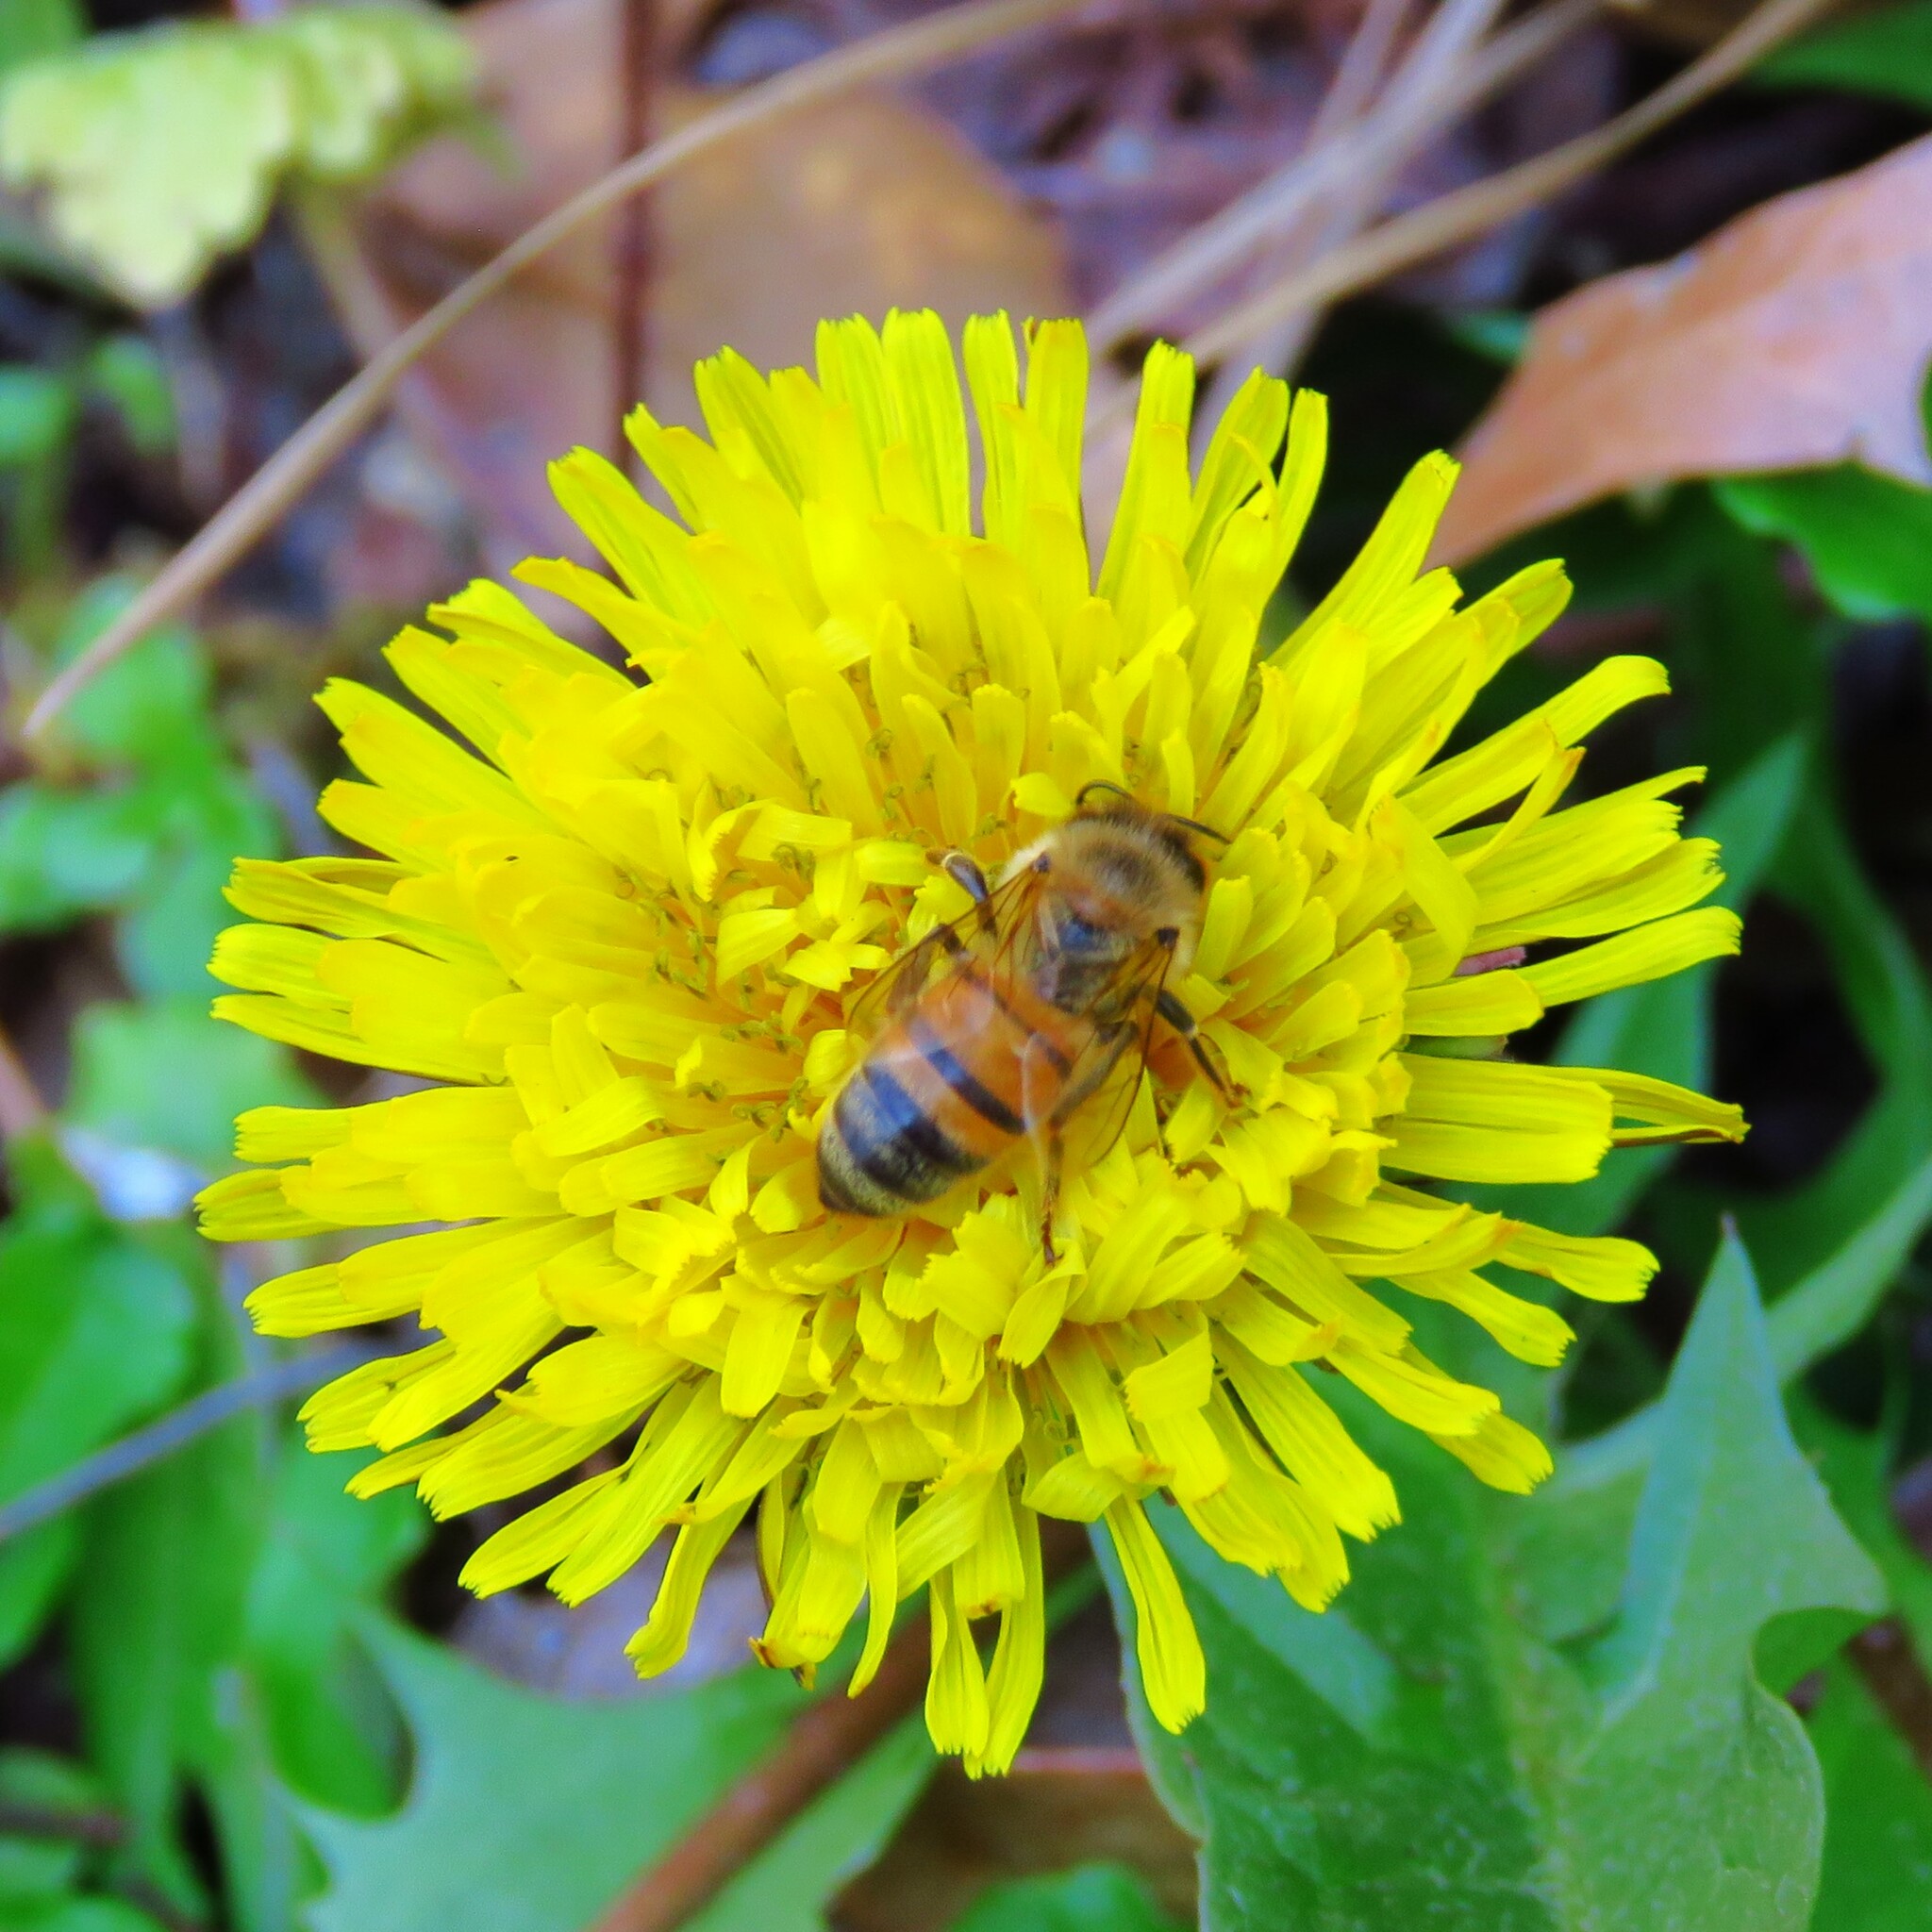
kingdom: Animalia
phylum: Arthropoda
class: Insecta
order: Hymenoptera
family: Apidae
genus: Apis
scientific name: Apis mellifera
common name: Honey bee
